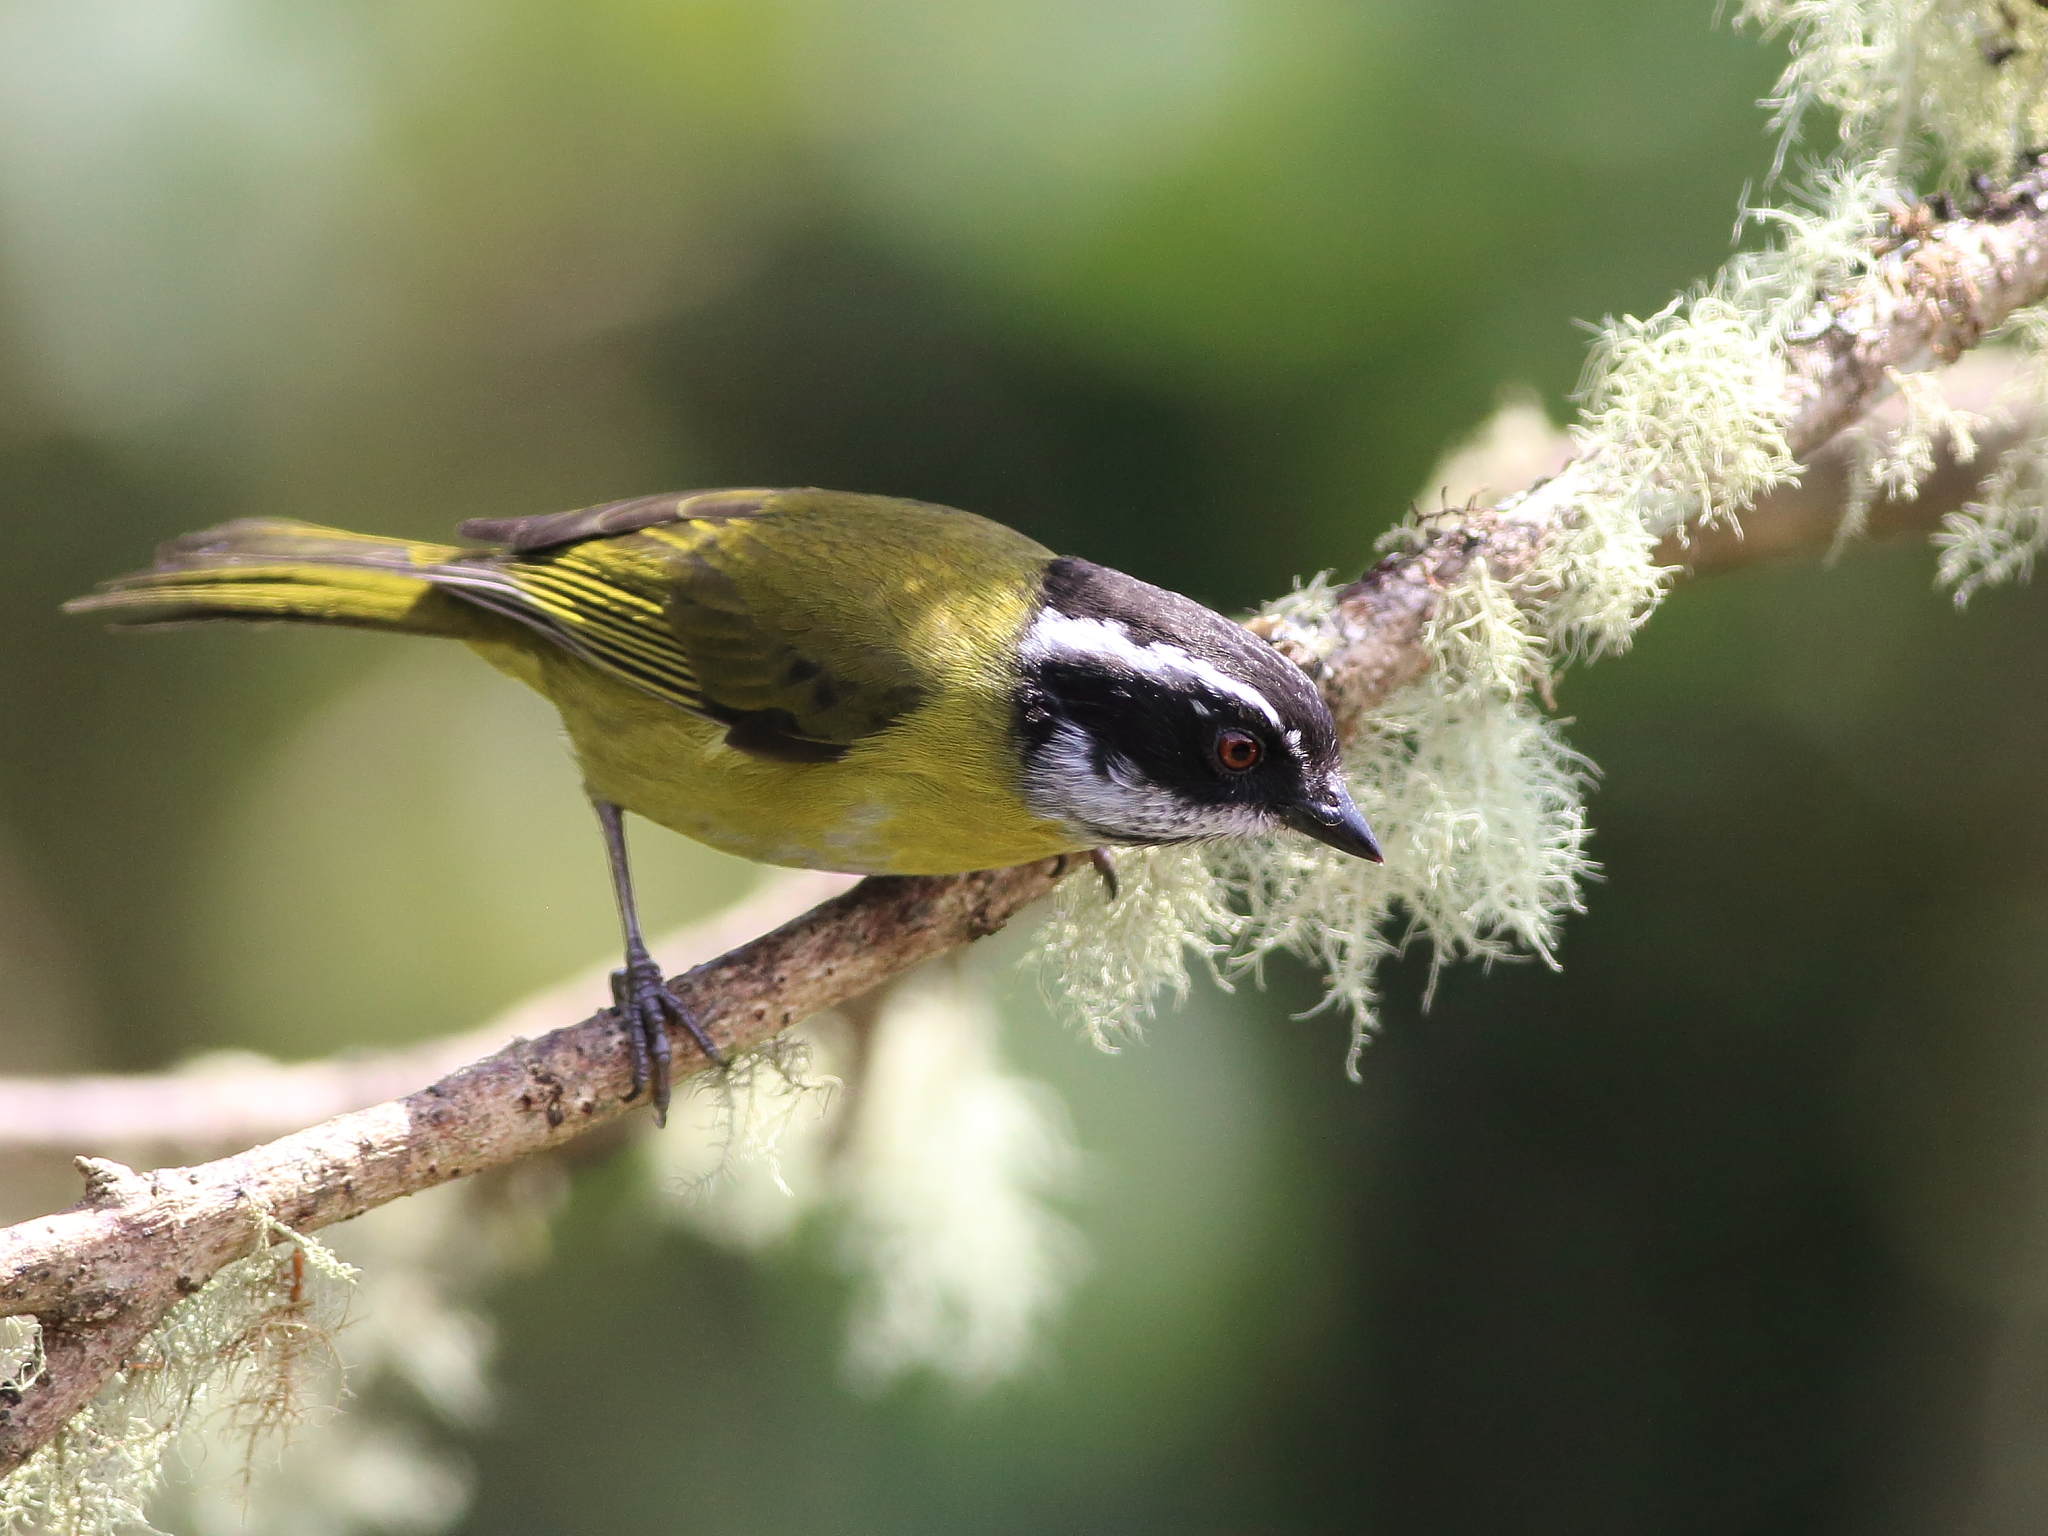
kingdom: Animalia
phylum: Chordata
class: Aves
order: Passeriformes
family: Passerellidae
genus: Chlorospingus
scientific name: Chlorospingus pileatus
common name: Sooty-capped bush-tanager
